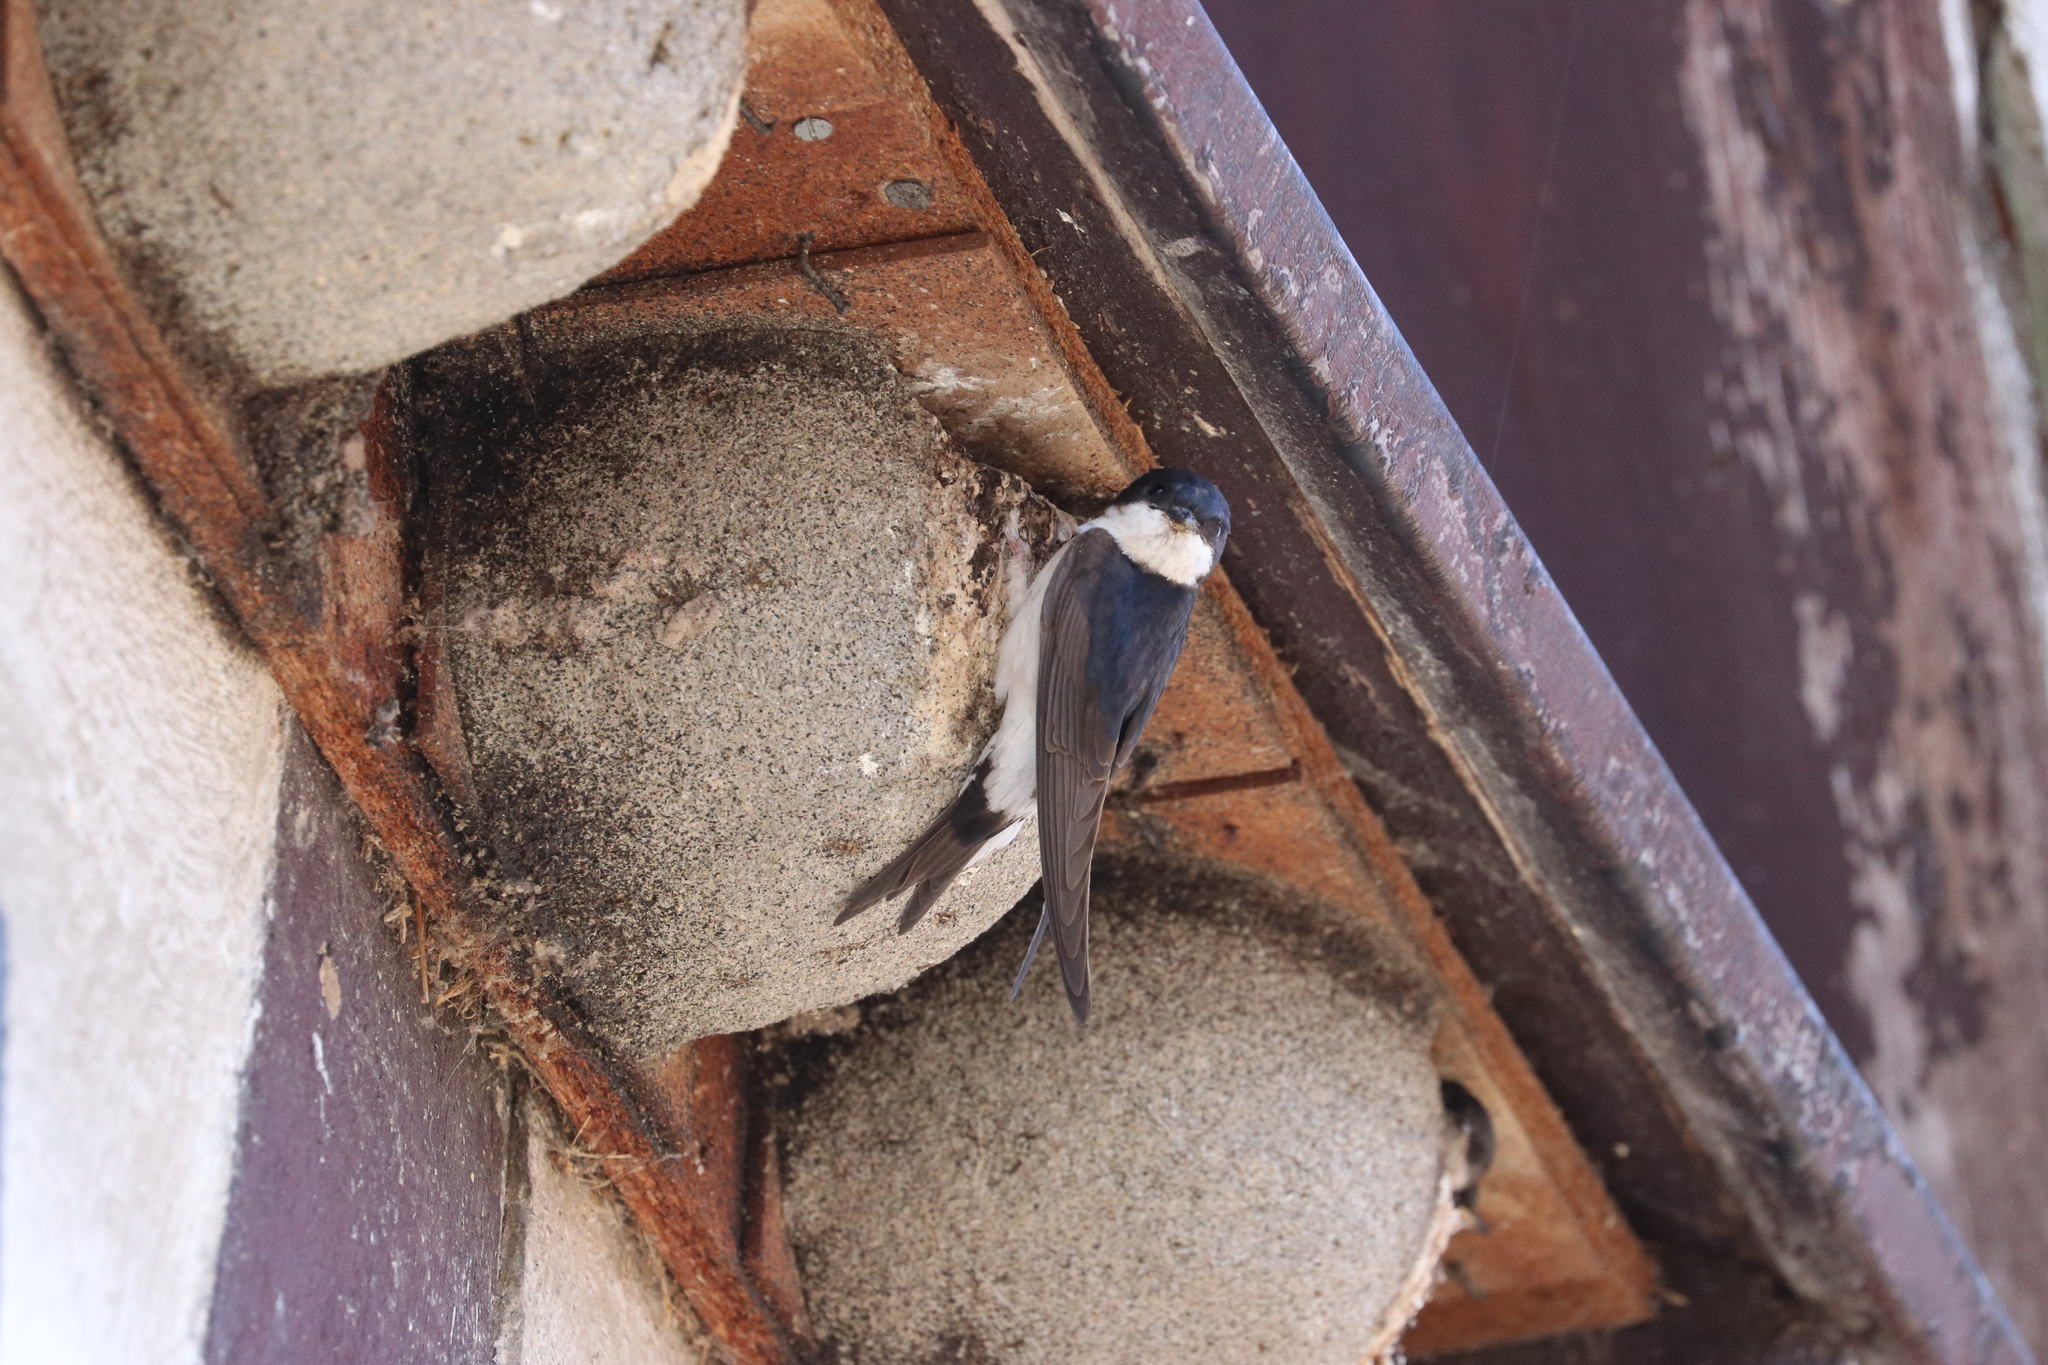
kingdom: Animalia
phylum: Chordata
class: Aves
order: Passeriformes
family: Hirundinidae
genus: Delichon
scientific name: Delichon urbicum
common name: Common house martin
